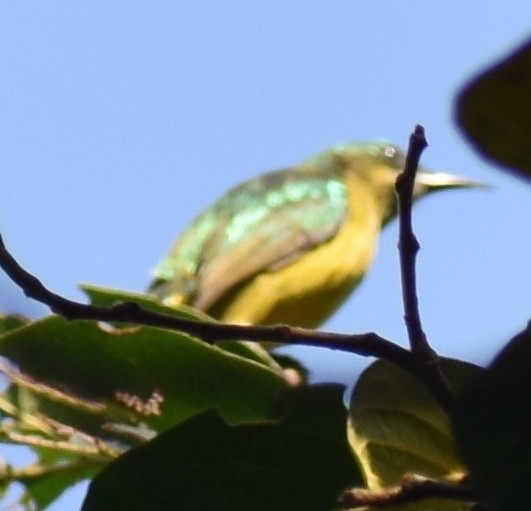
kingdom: Animalia
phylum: Chordata
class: Aves
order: Passeriformes
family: Nectariniidae
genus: Hedydipna
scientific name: Hedydipna collaris
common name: Collared sunbird
